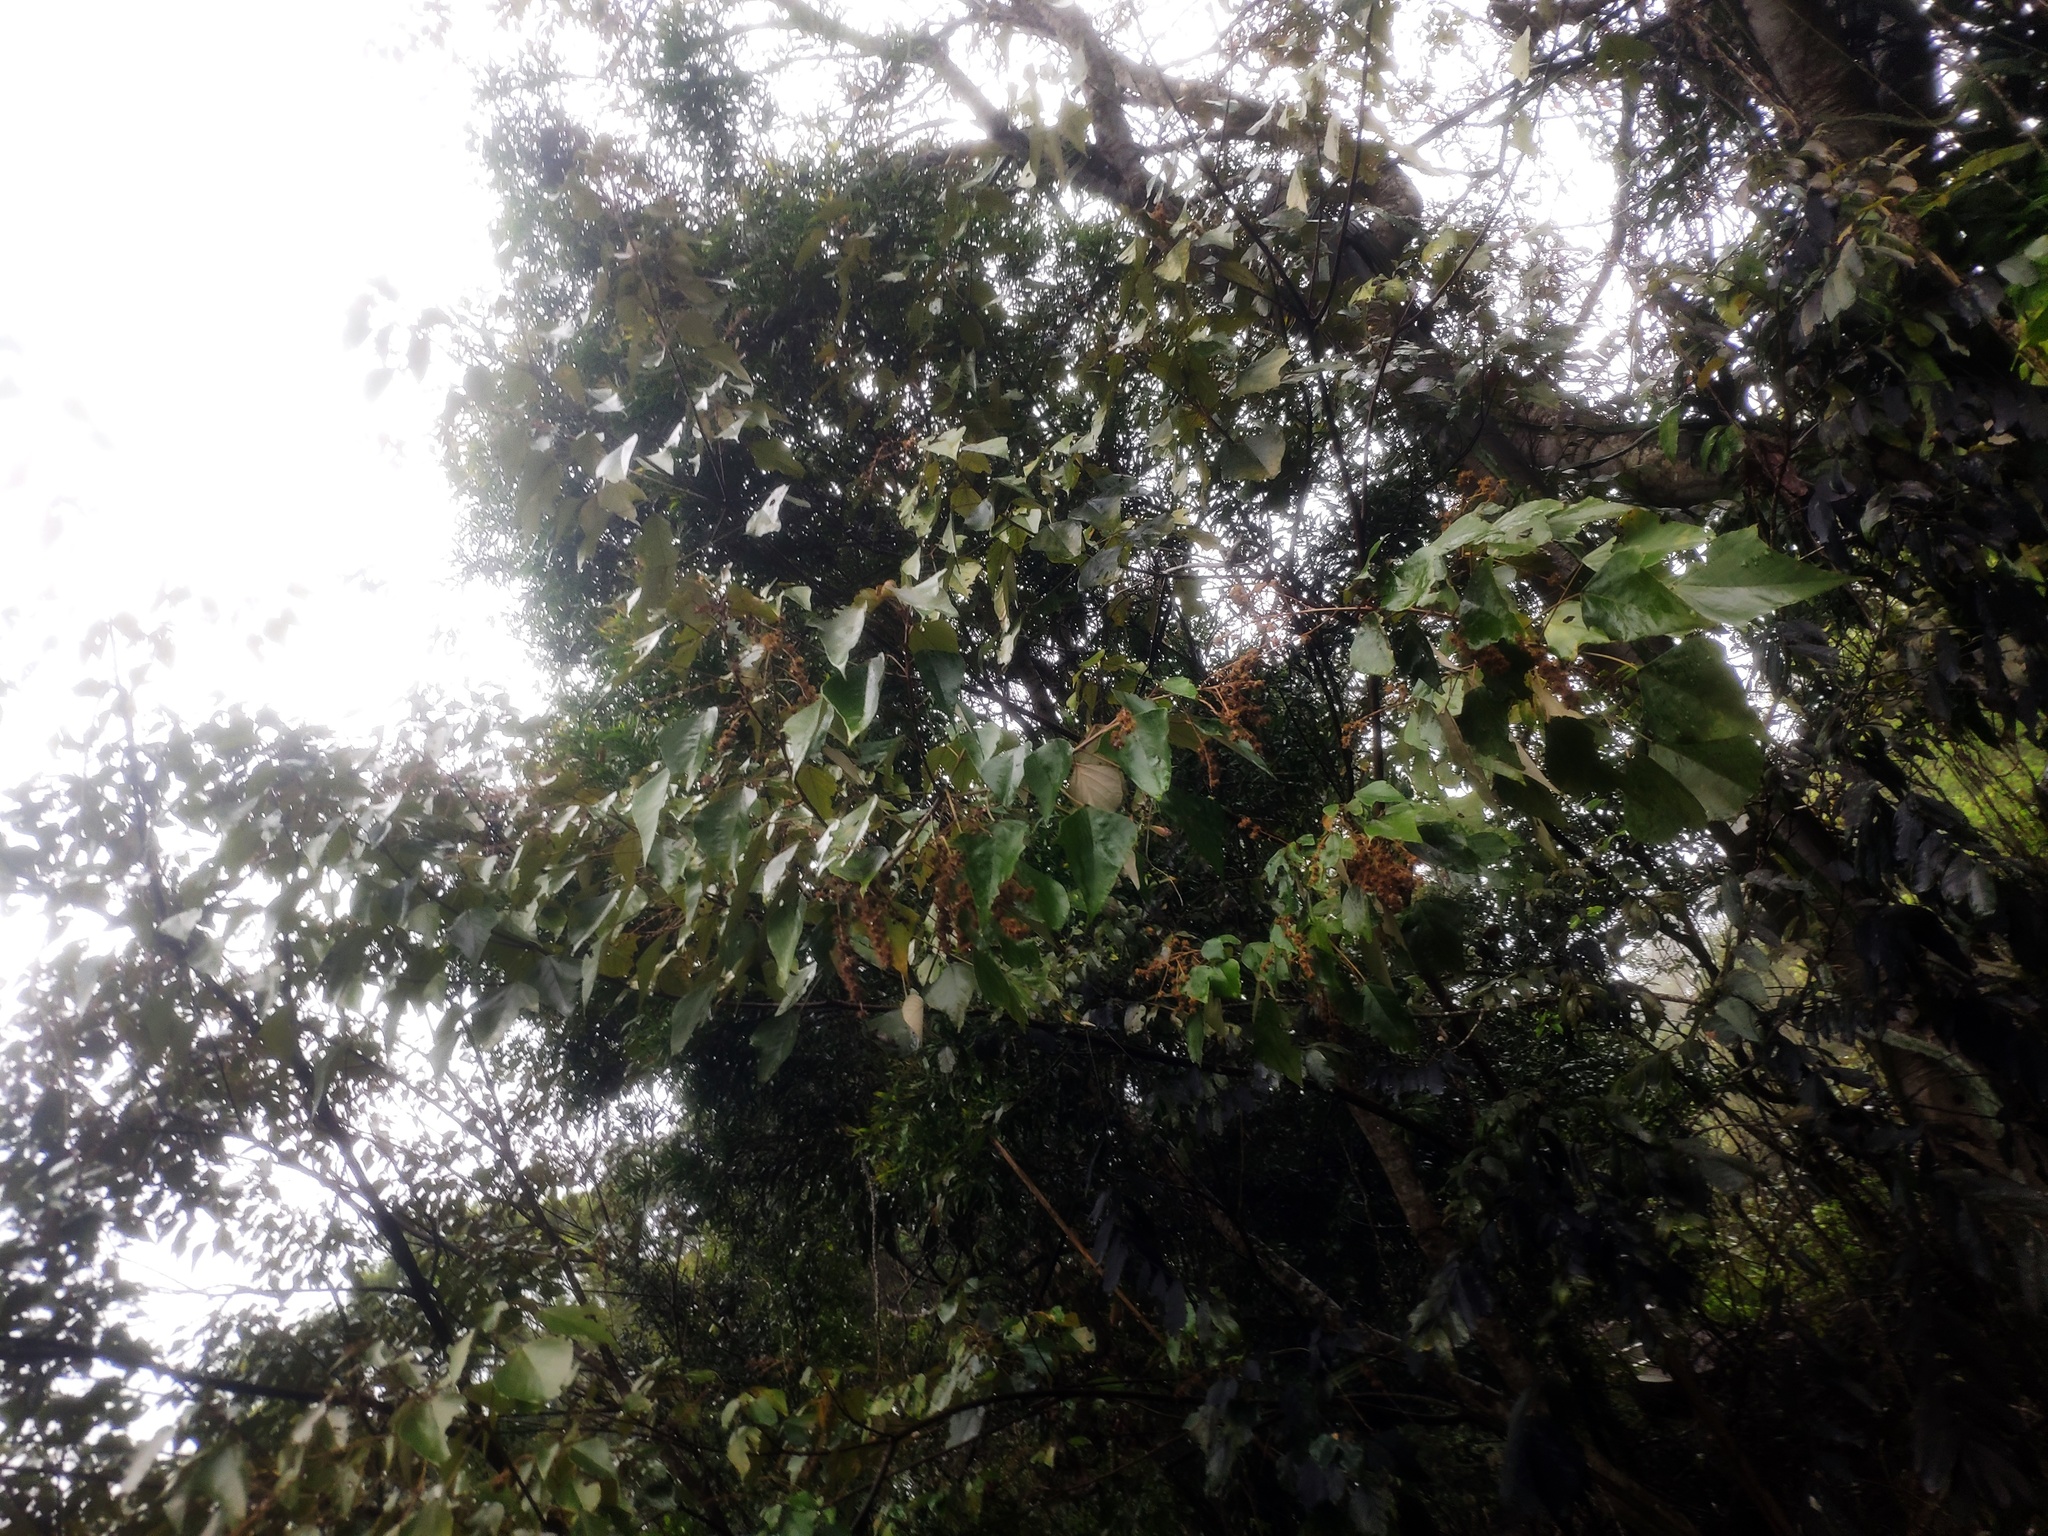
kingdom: Plantae
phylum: Tracheophyta
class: Magnoliopsida
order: Malpighiales
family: Euphorbiaceae
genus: Mallotus
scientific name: Mallotus paniculatus
